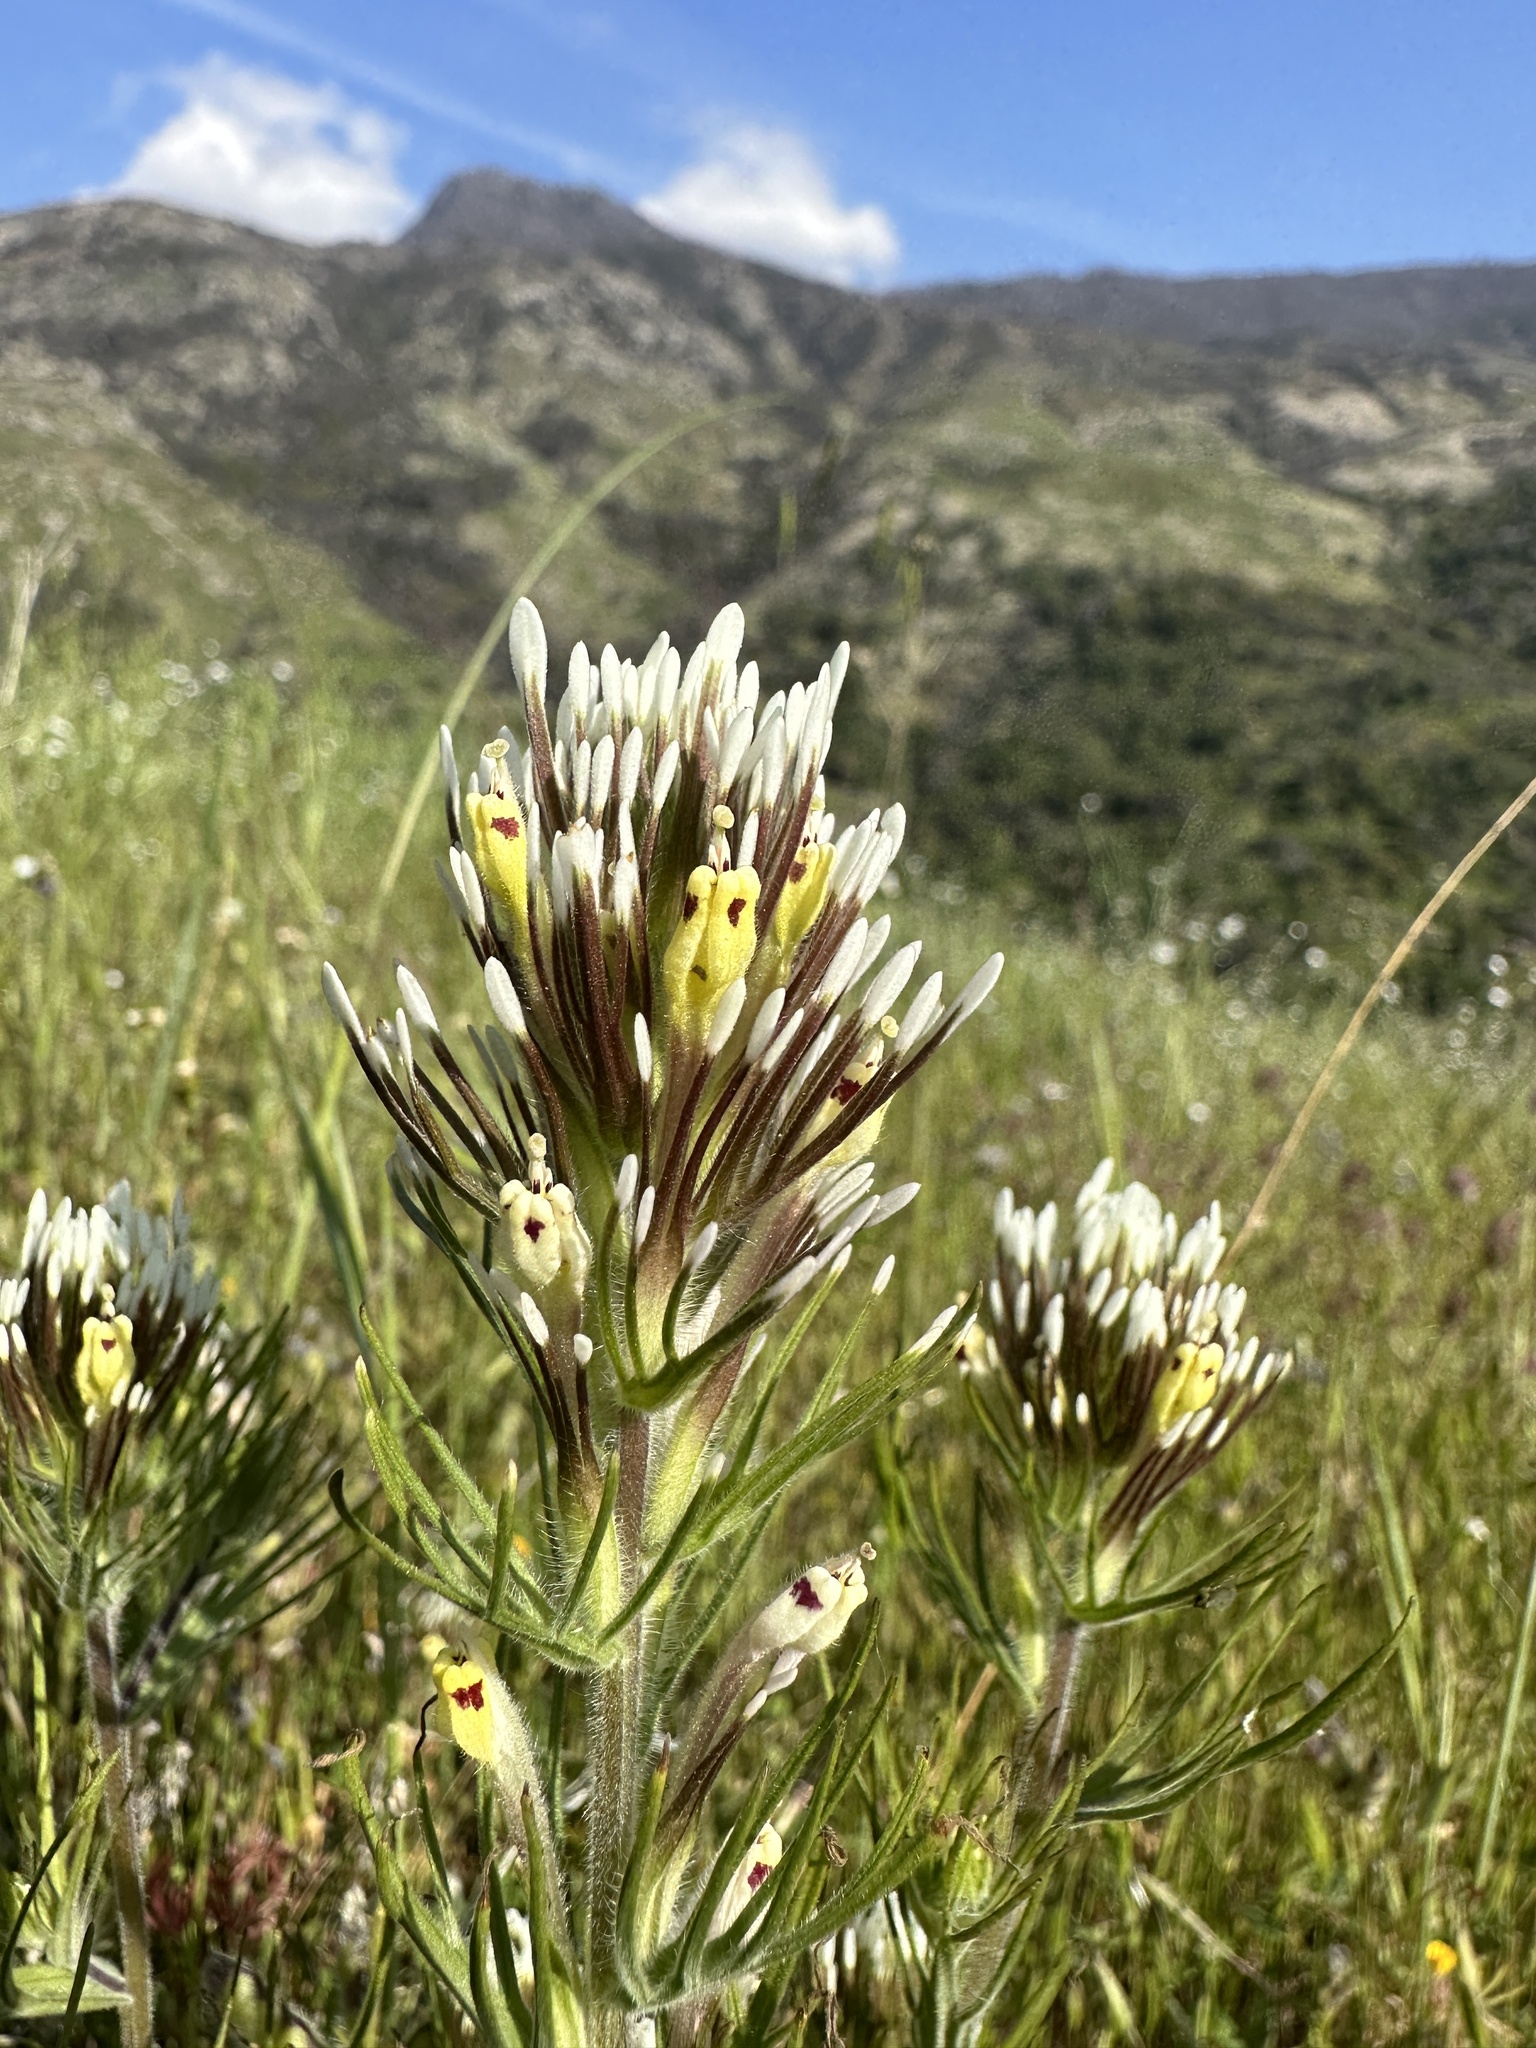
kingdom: Plantae
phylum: Tracheophyta
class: Magnoliopsida
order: Lamiales
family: Orobanchaceae
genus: Castilleja
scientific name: Castilleja lineariloba
